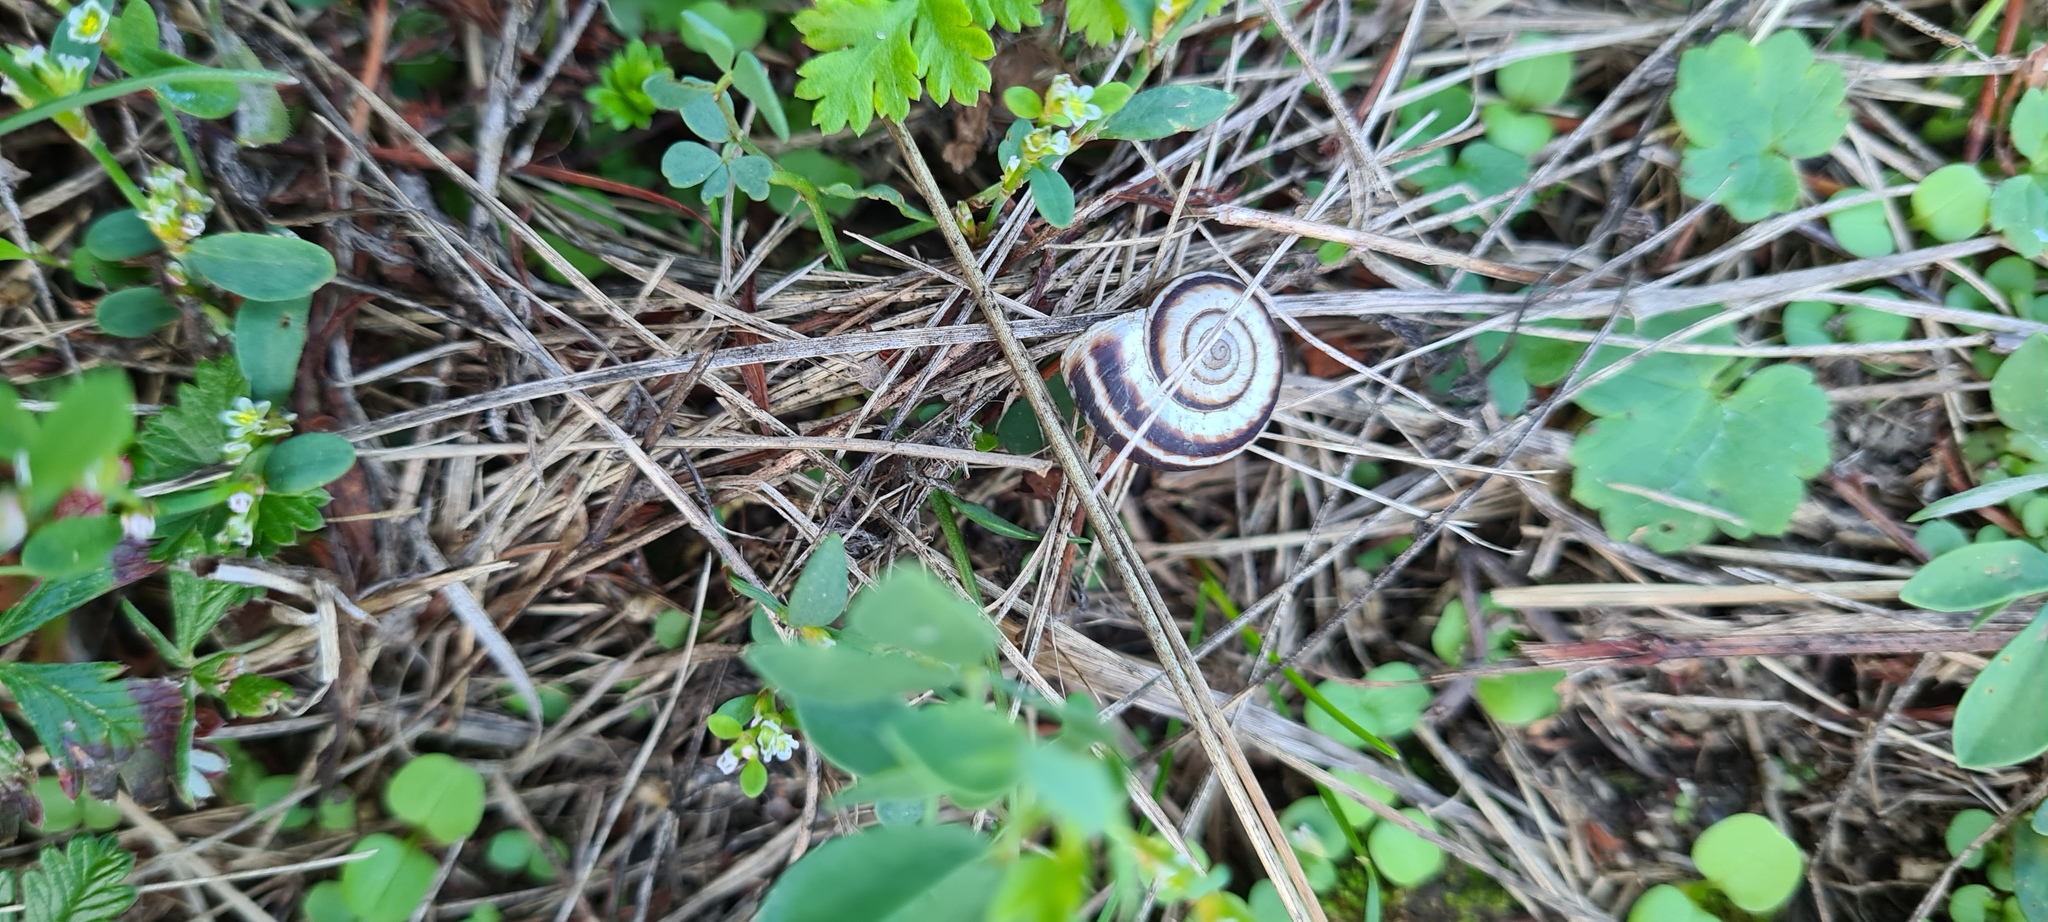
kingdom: Animalia
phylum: Mollusca
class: Gastropoda
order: Stylommatophora
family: Geomitridae
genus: Xerolenta
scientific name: Xerolenta obvia
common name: White heath snail
